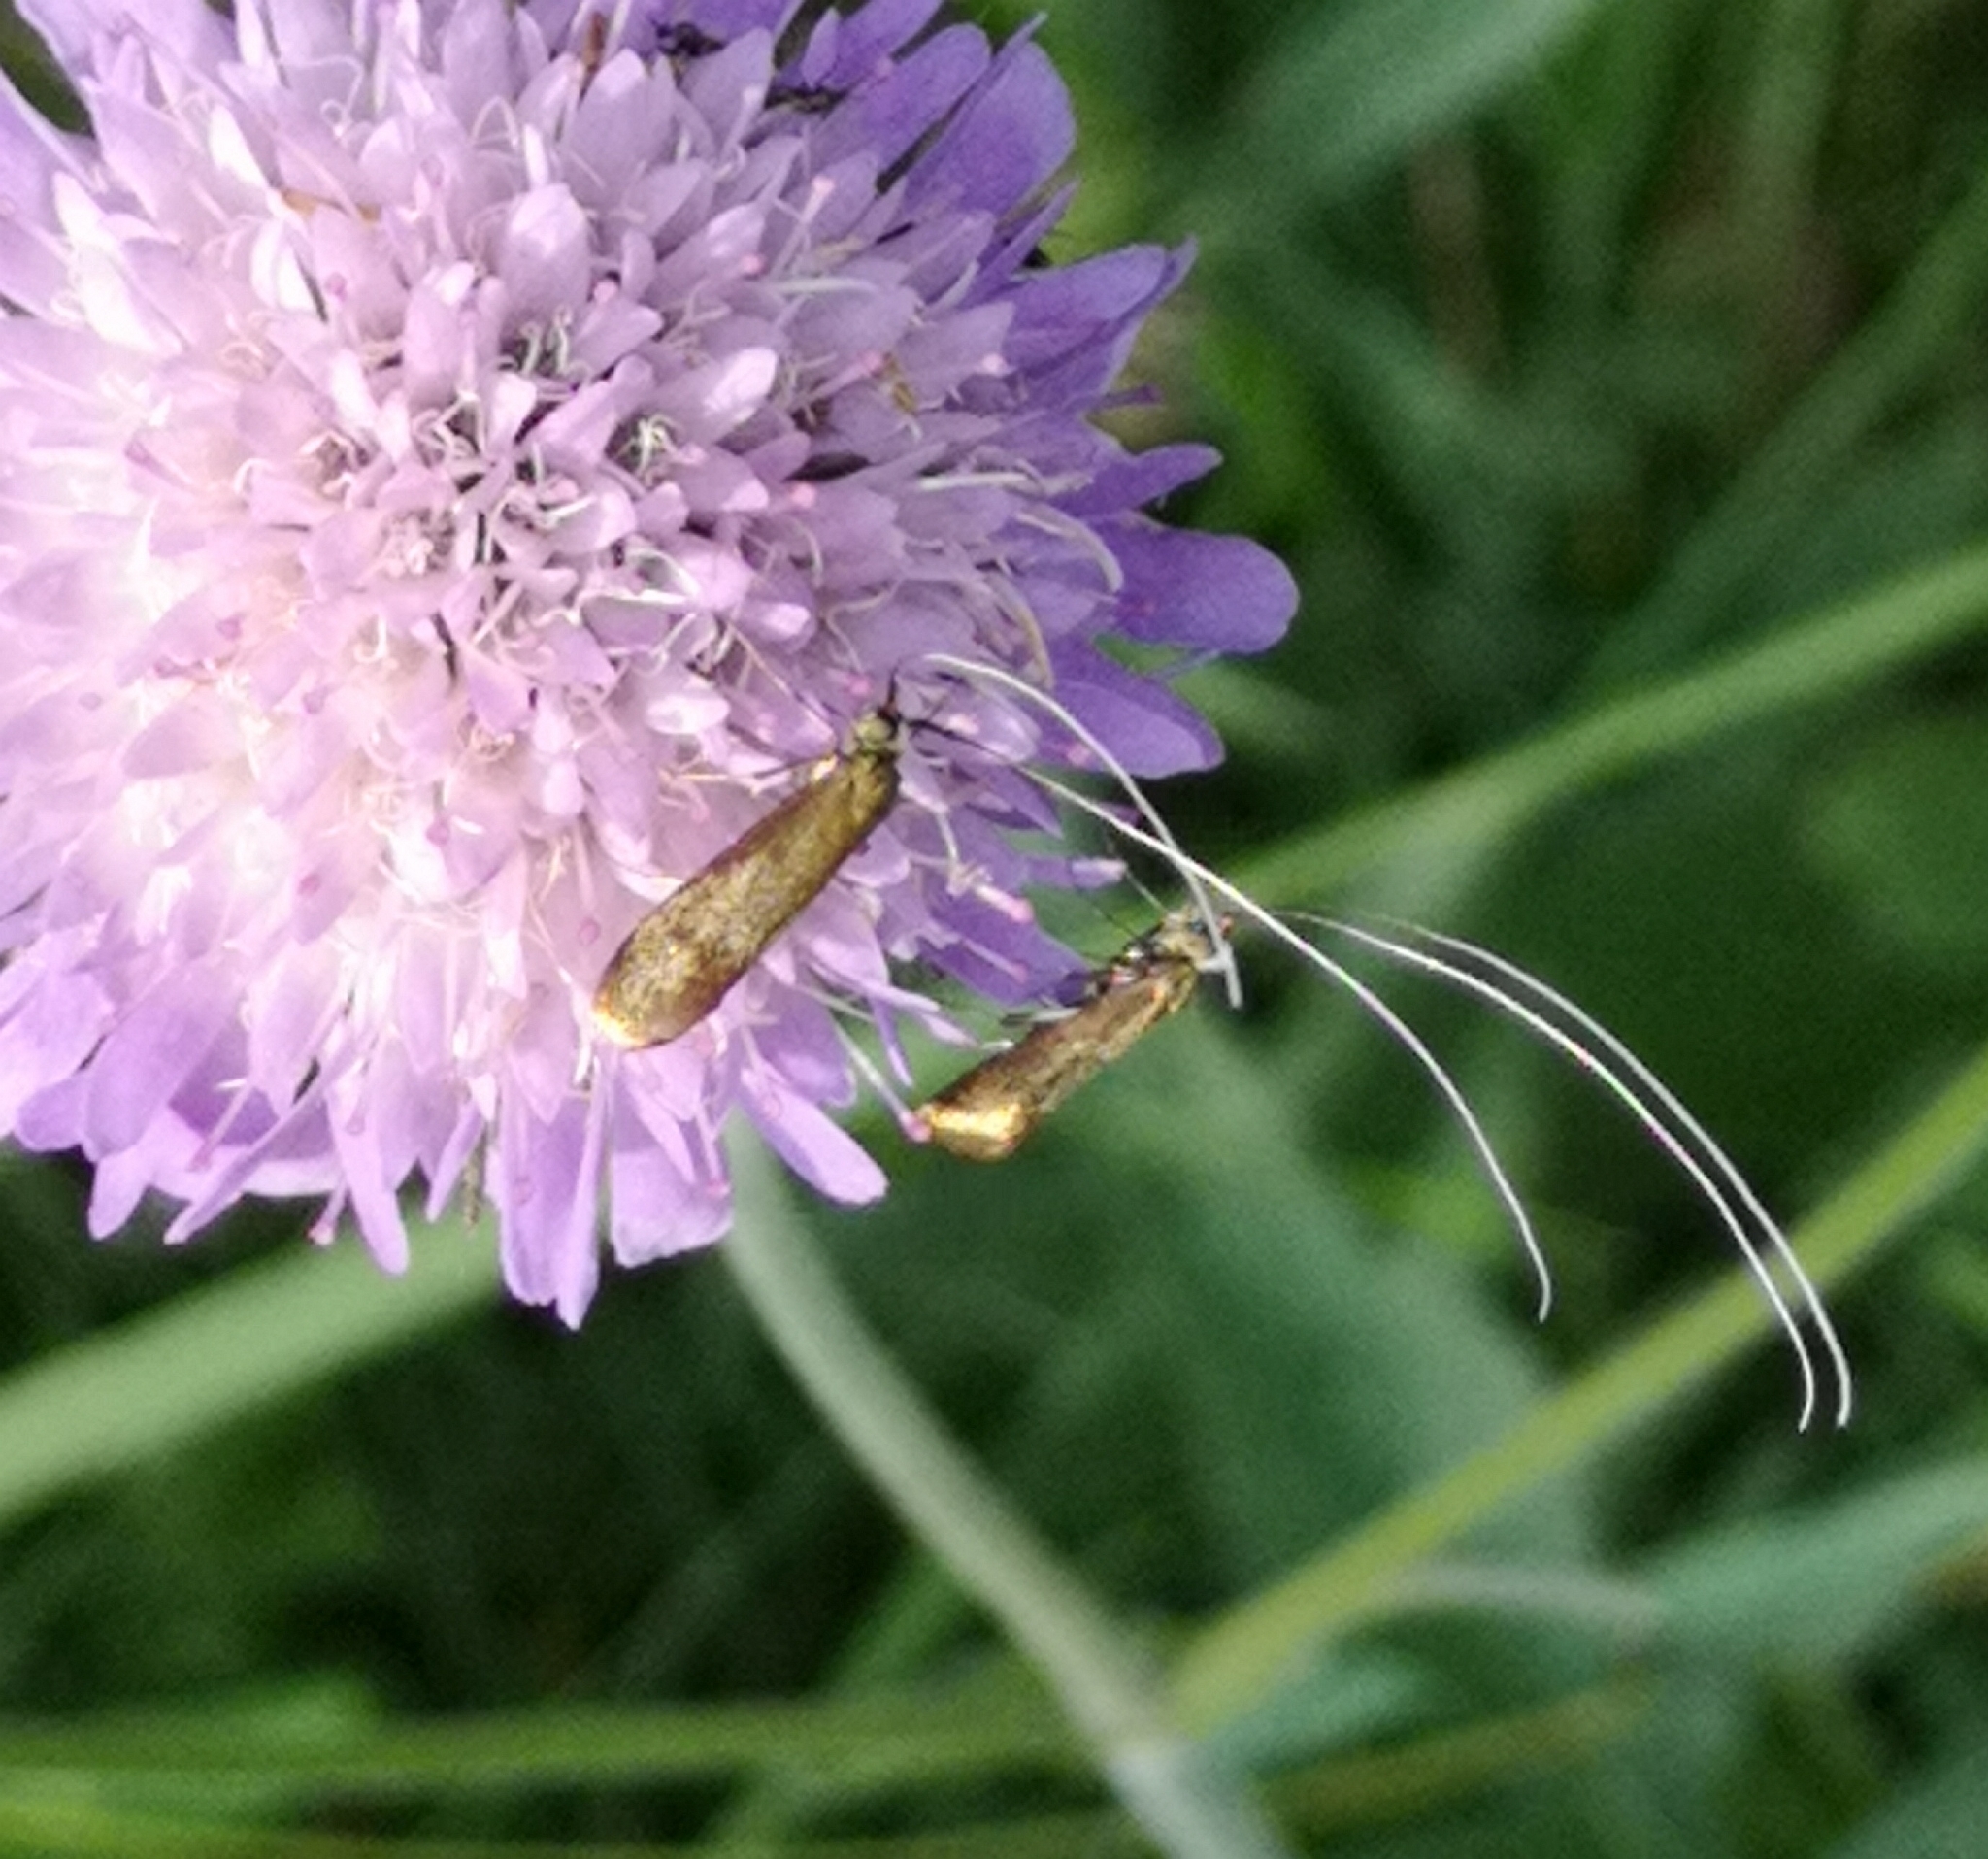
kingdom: Animalia
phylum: Arthropoda
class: Insecta
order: Lepidoptera
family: Adelidae
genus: Nemophora
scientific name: Nemophora metallica
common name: Brassy long-horn
